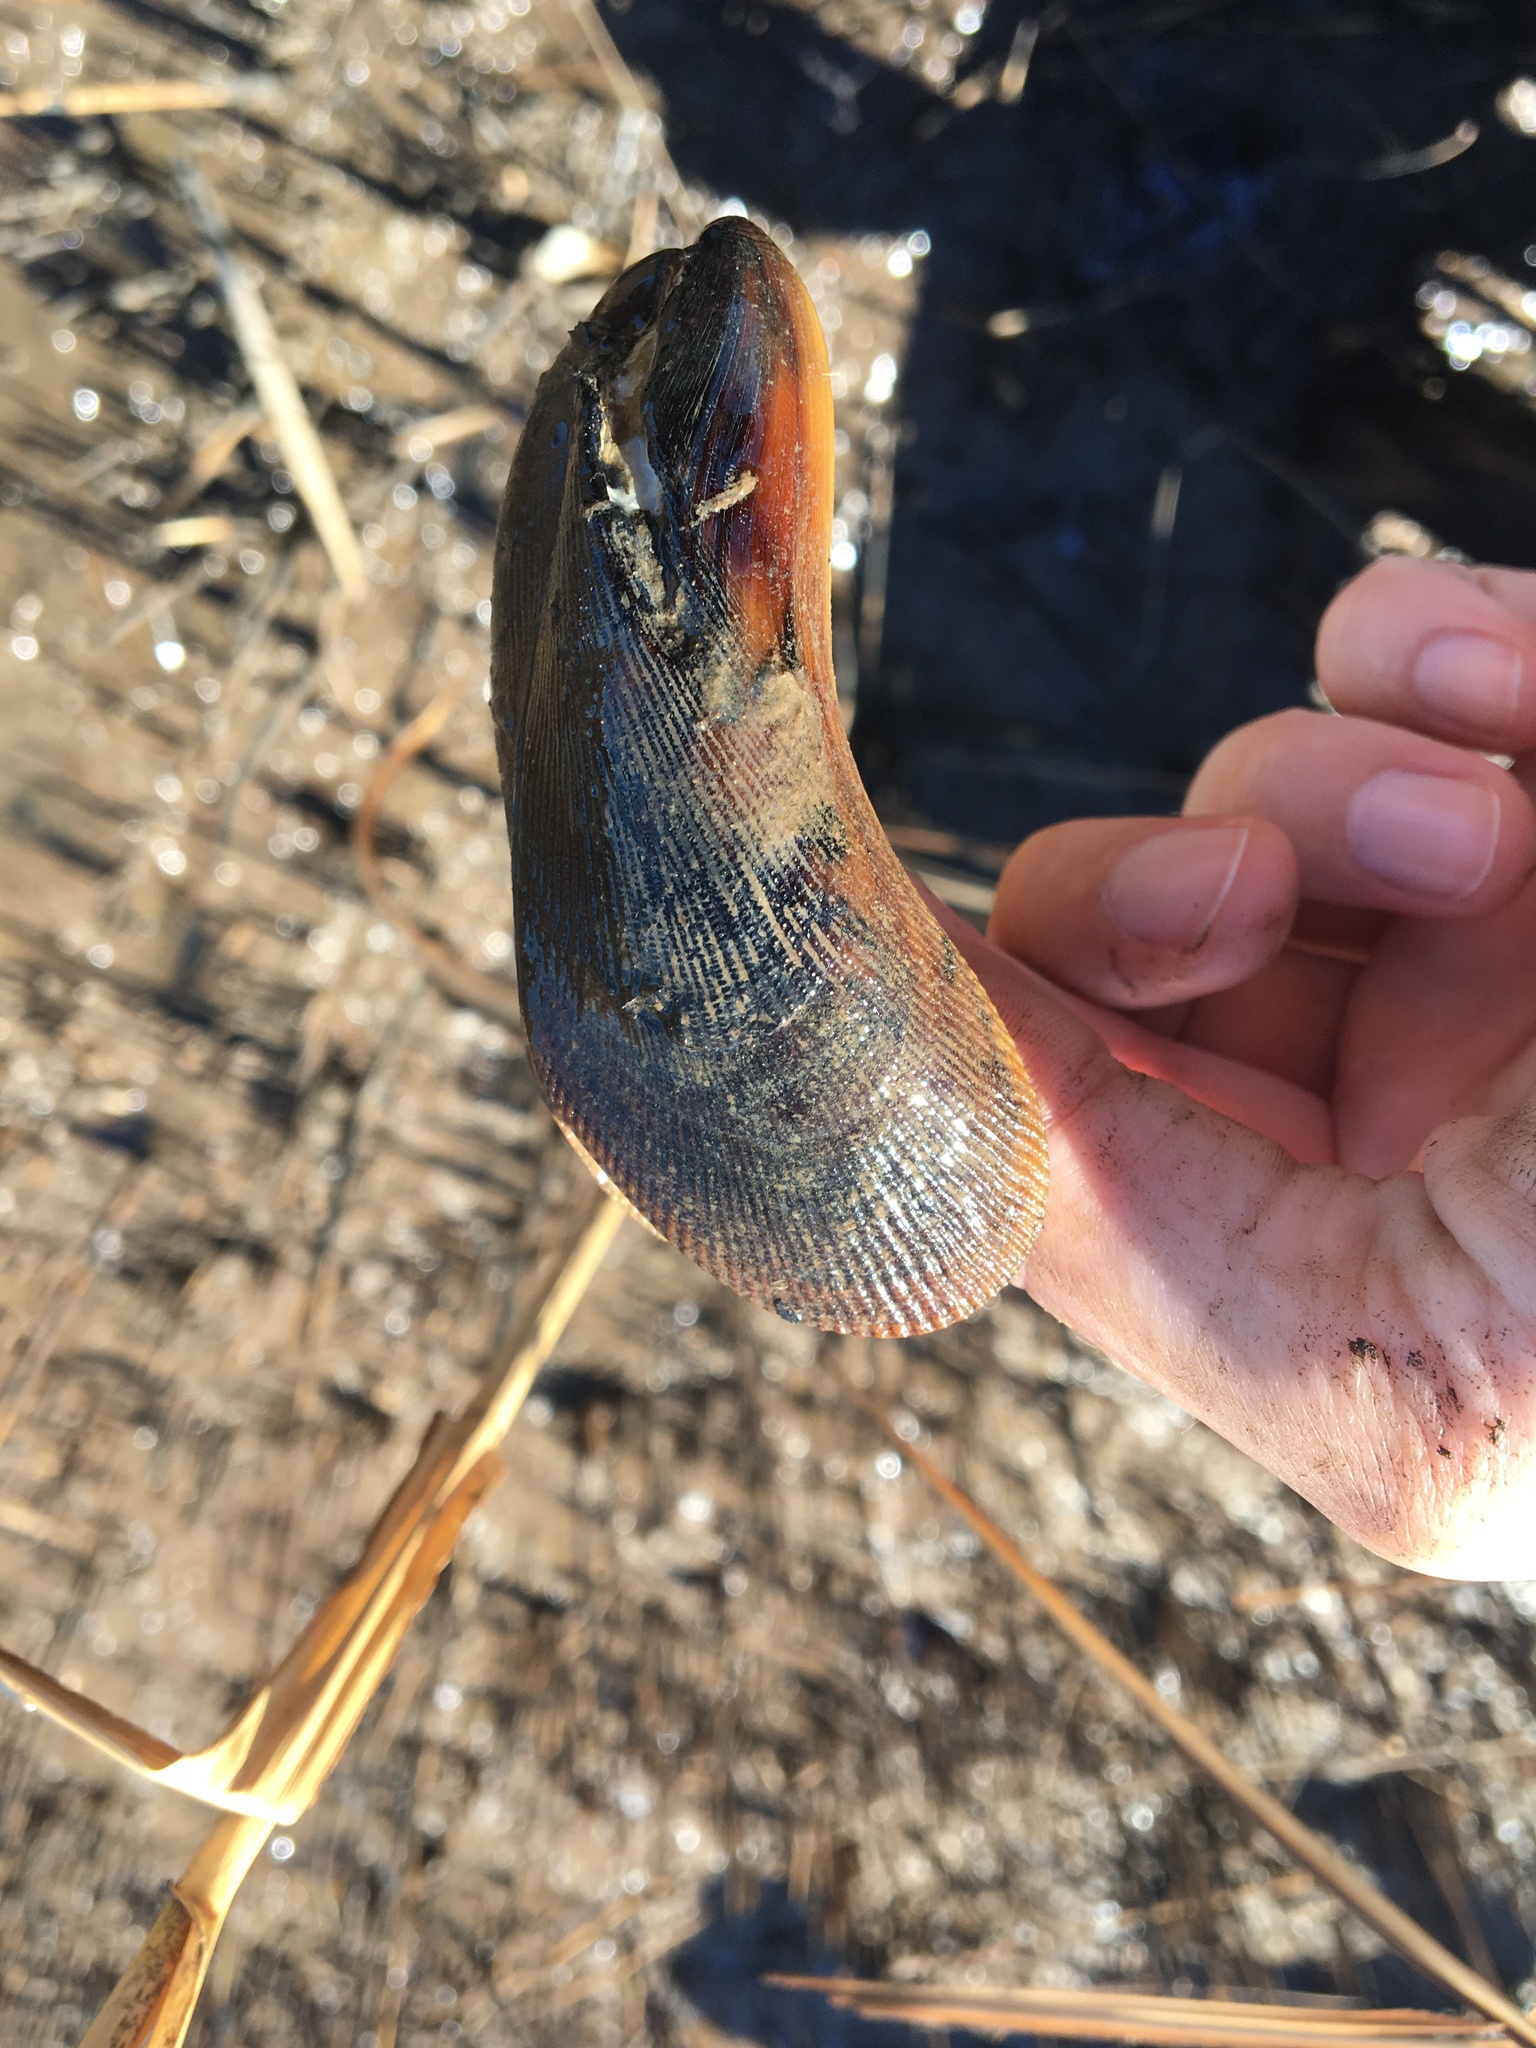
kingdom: Animalia
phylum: Mollusca
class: Bivalvia
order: Mytilida
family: Mytilidae
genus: Geukensia
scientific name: Geukensia granosissima
